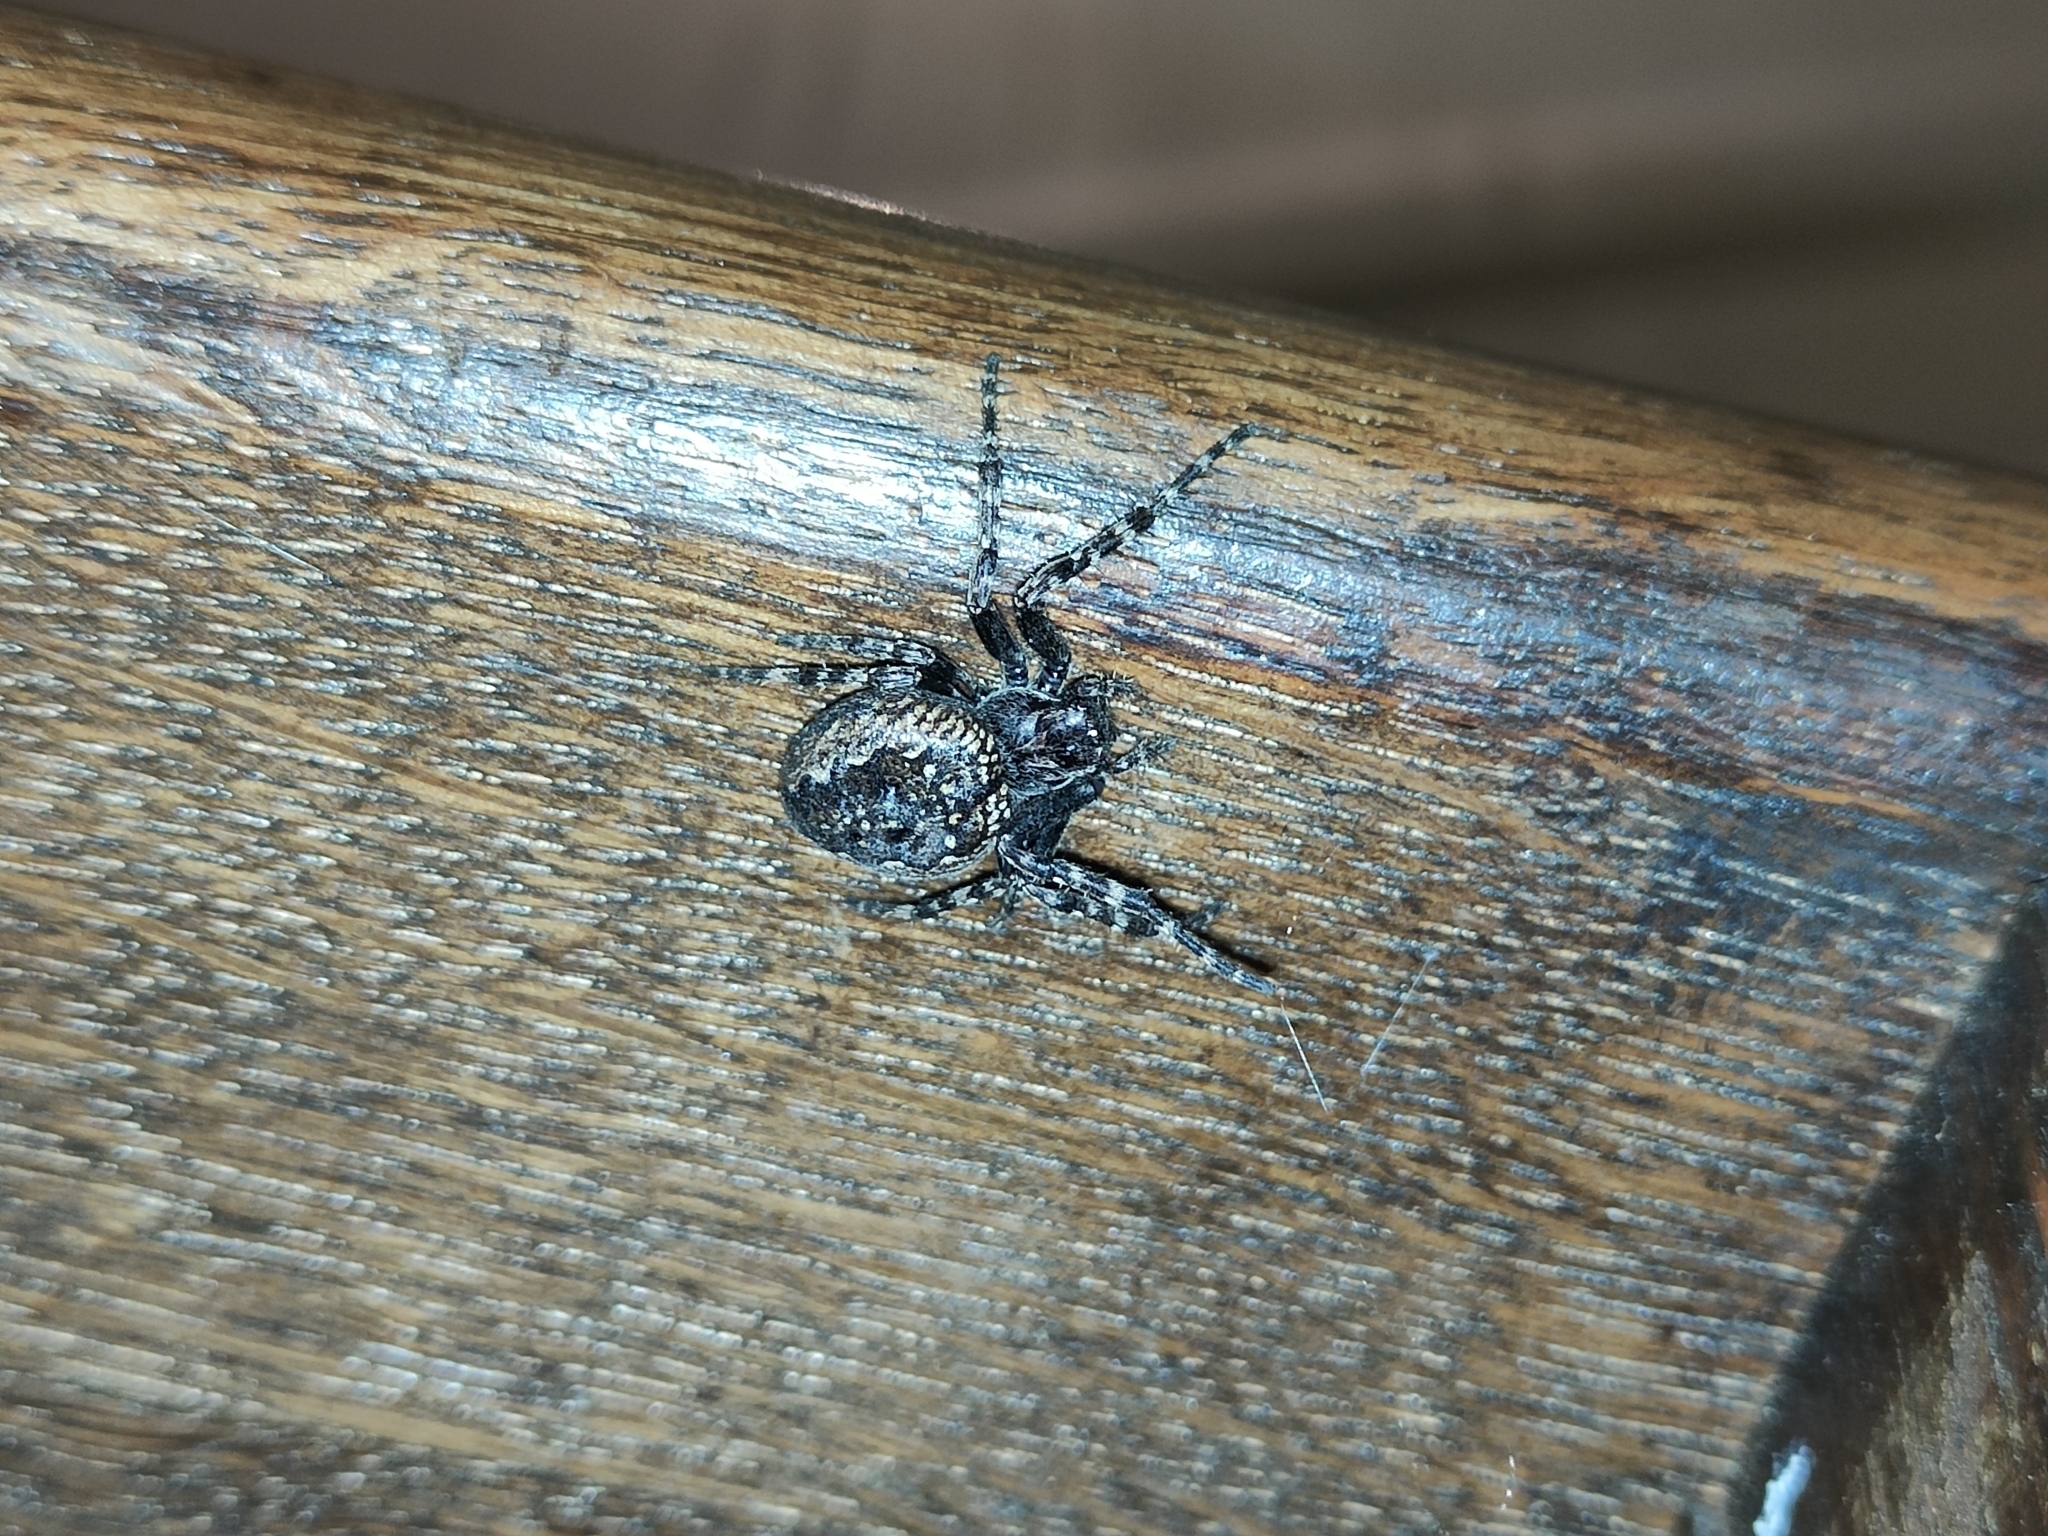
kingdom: Animalia
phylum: Arthropoda
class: Arachnida
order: Araneae
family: Araneidae
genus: Nuctenea
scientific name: Nuctenea umbratica
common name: Toad spider
